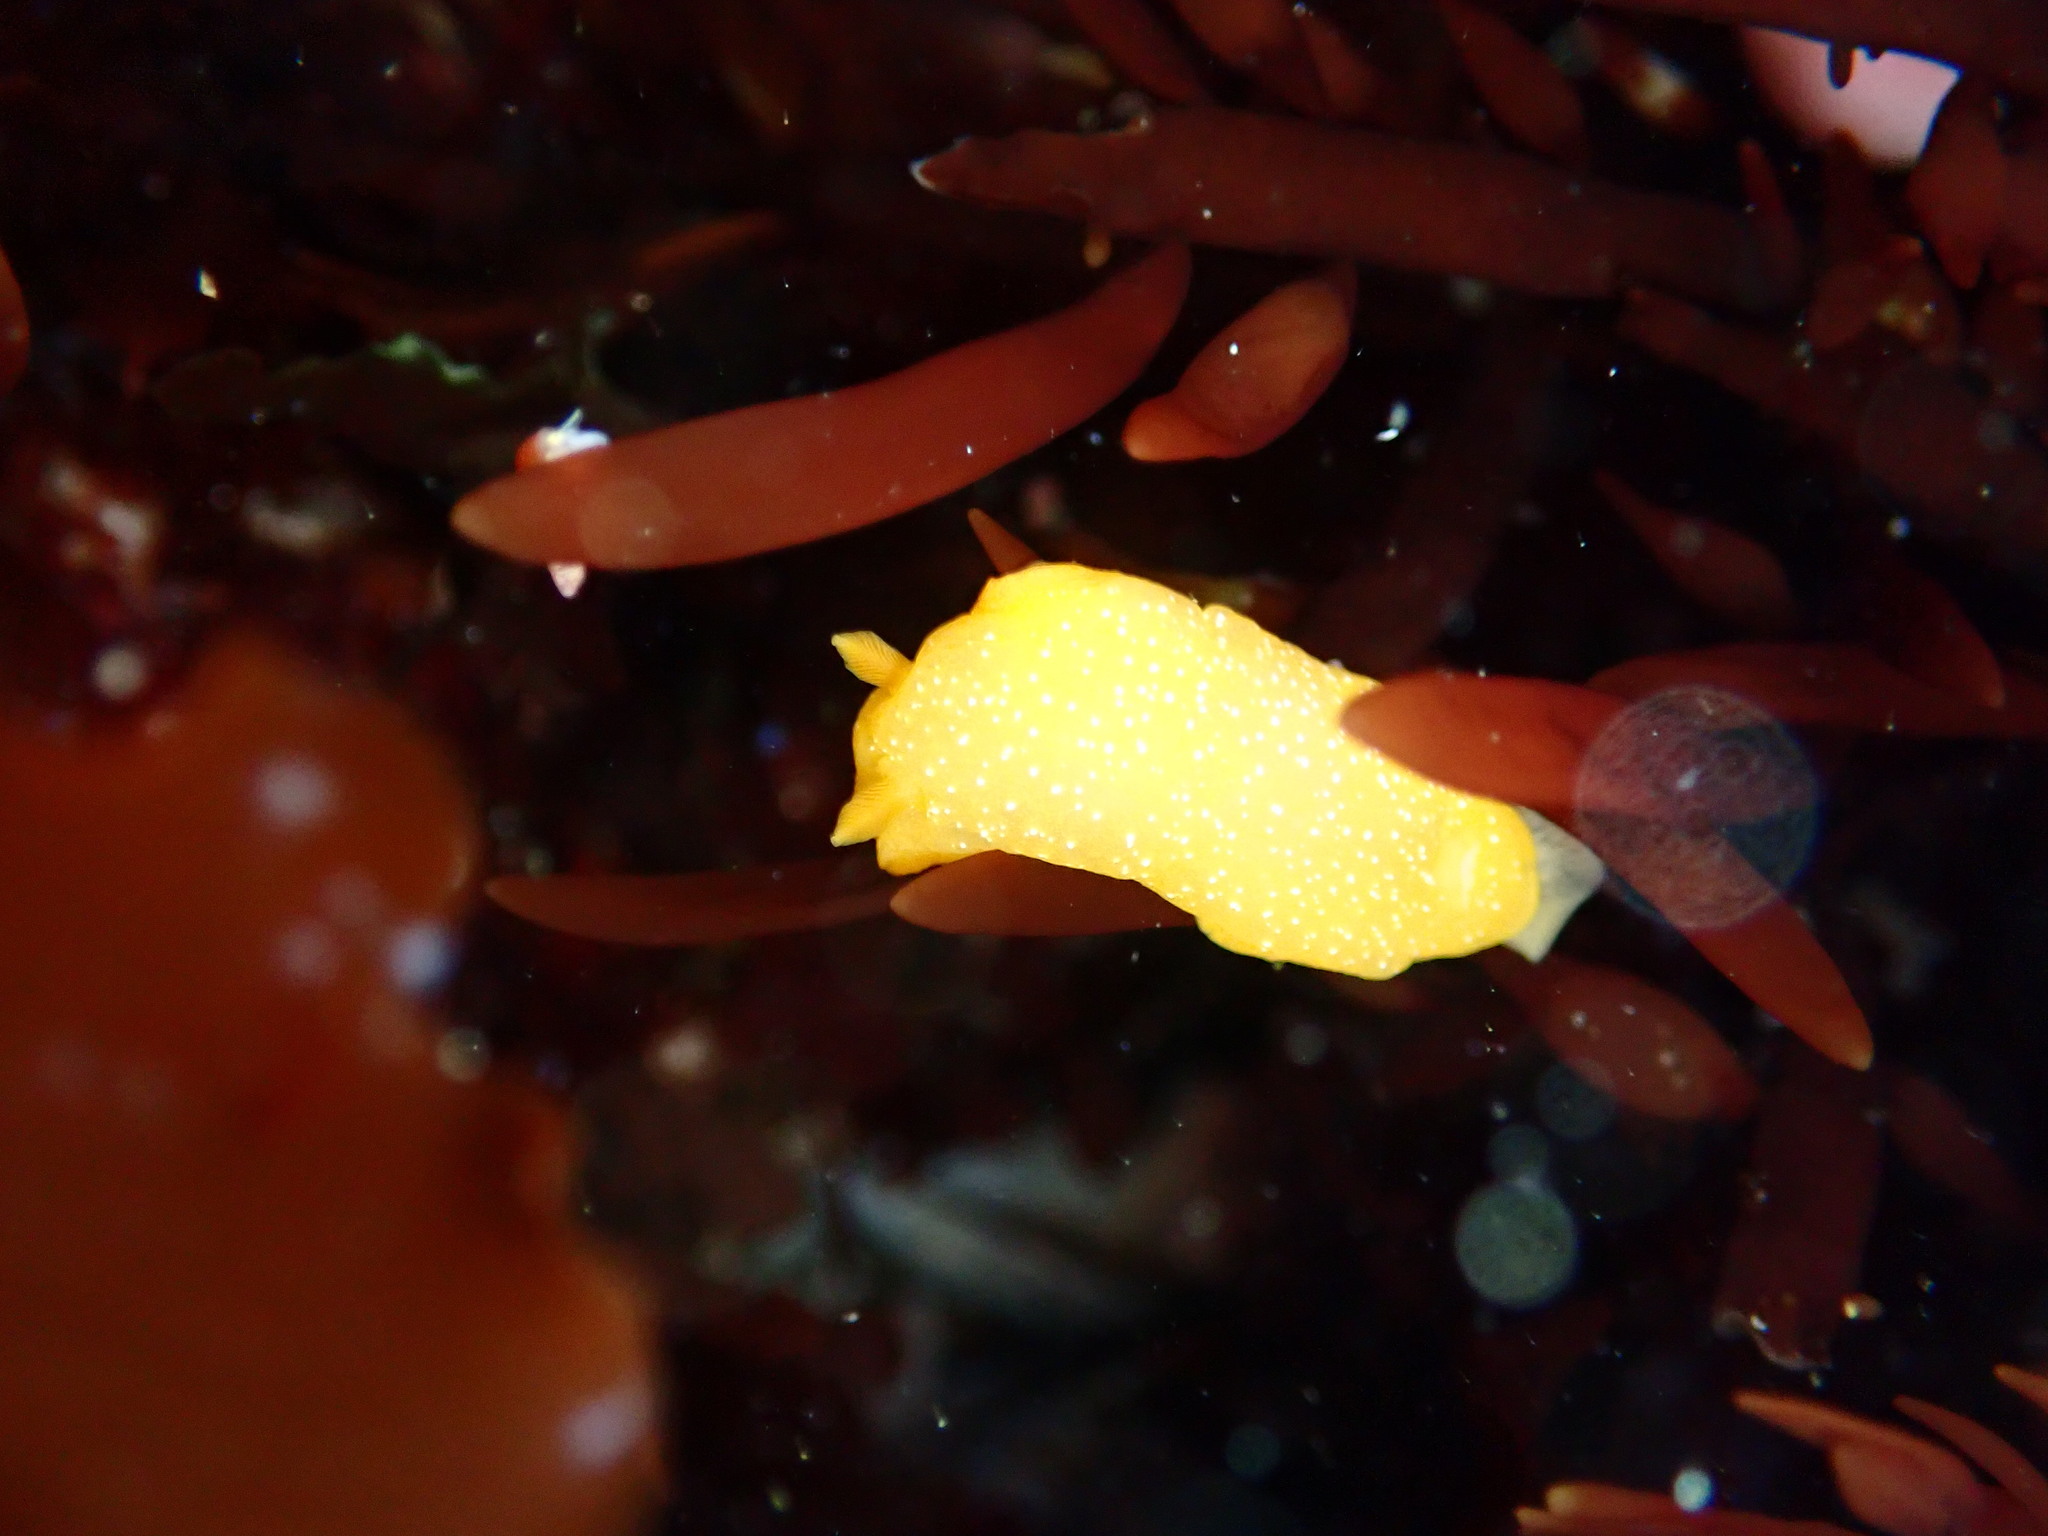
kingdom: Animalia
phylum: Mollusca
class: Gastropoda
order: Nudibranchia
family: Dendrodorididae
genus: Doriopsilla
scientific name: Doriopsilla fulva
